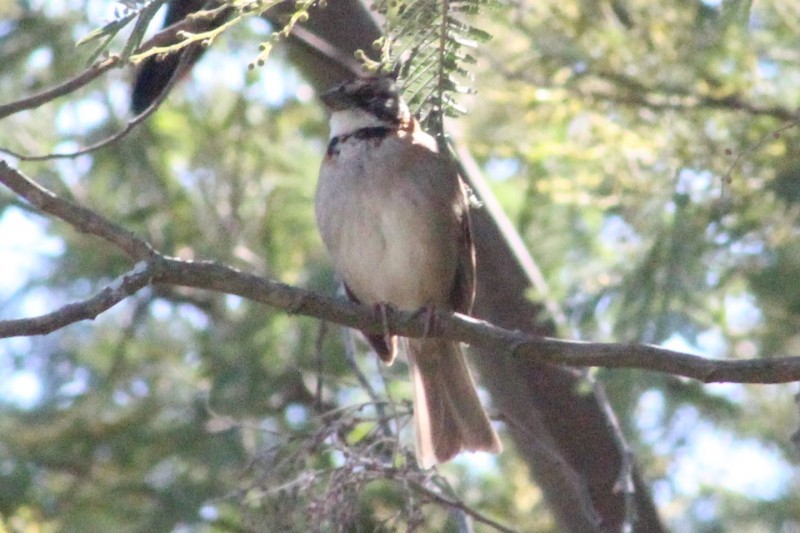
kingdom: Animalia
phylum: Chordata
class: Aves
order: Passeriformes
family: Passerellidae
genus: Zonotrichia
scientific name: Zonotrichia capensis
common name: Rufous-collared sparrow
